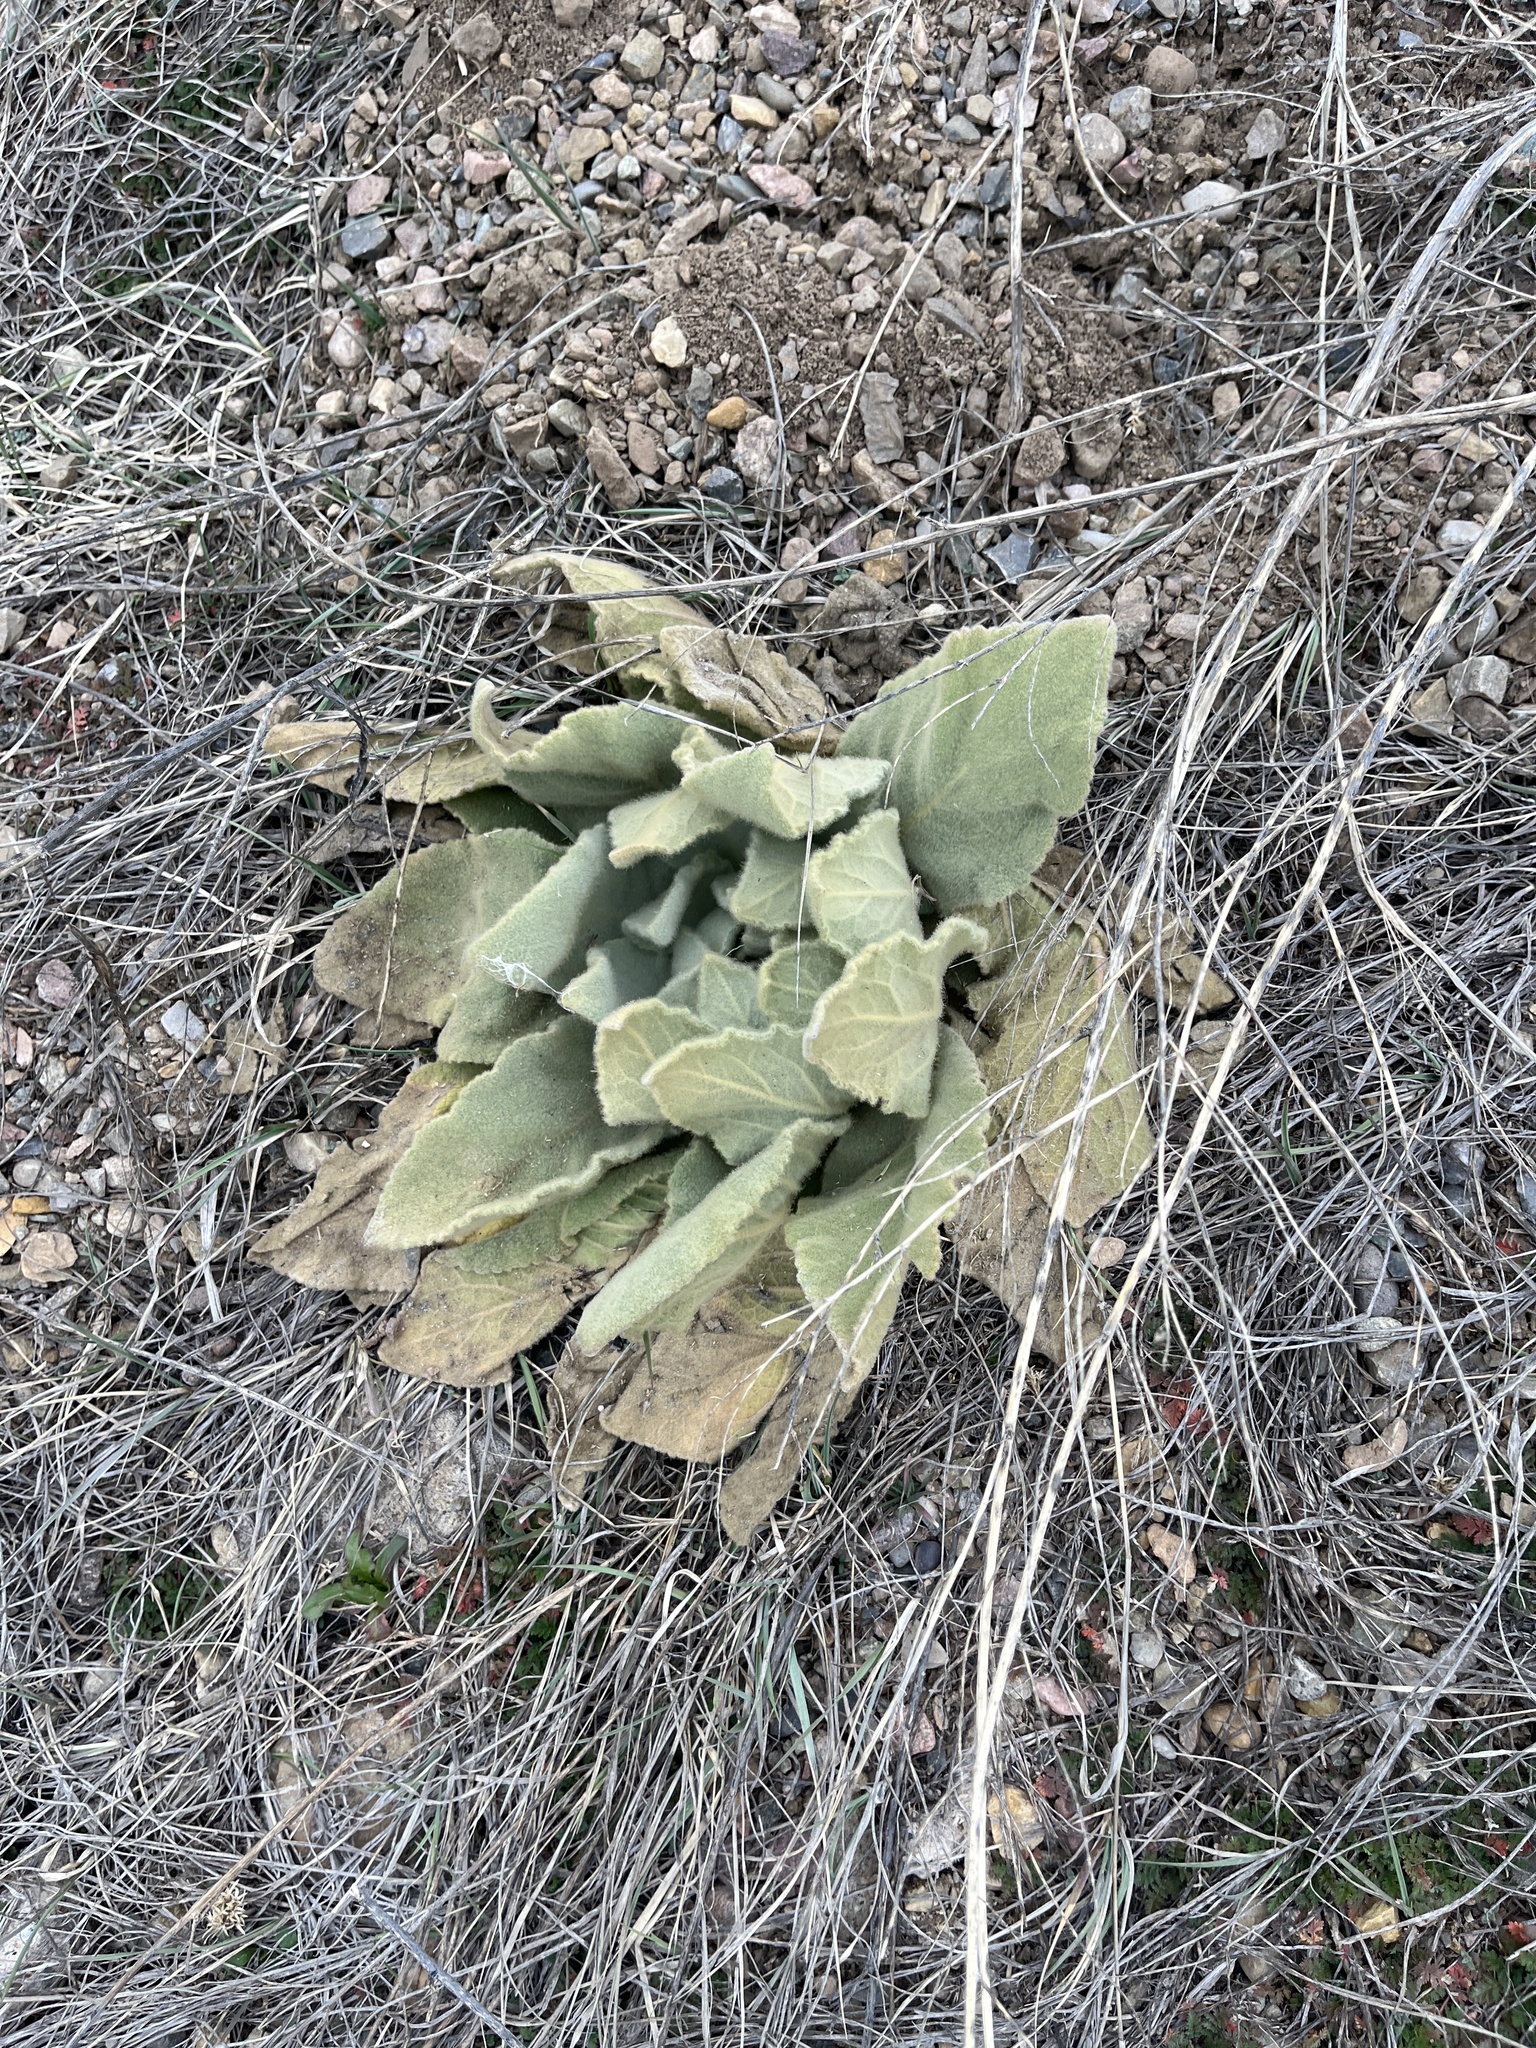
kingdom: Plantae
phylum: Tracheophyta
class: Magnoliopsida
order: Lamiales
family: Scrophulariaceae
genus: Verbascum
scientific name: Verbascum thapsus
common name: Common mullein
